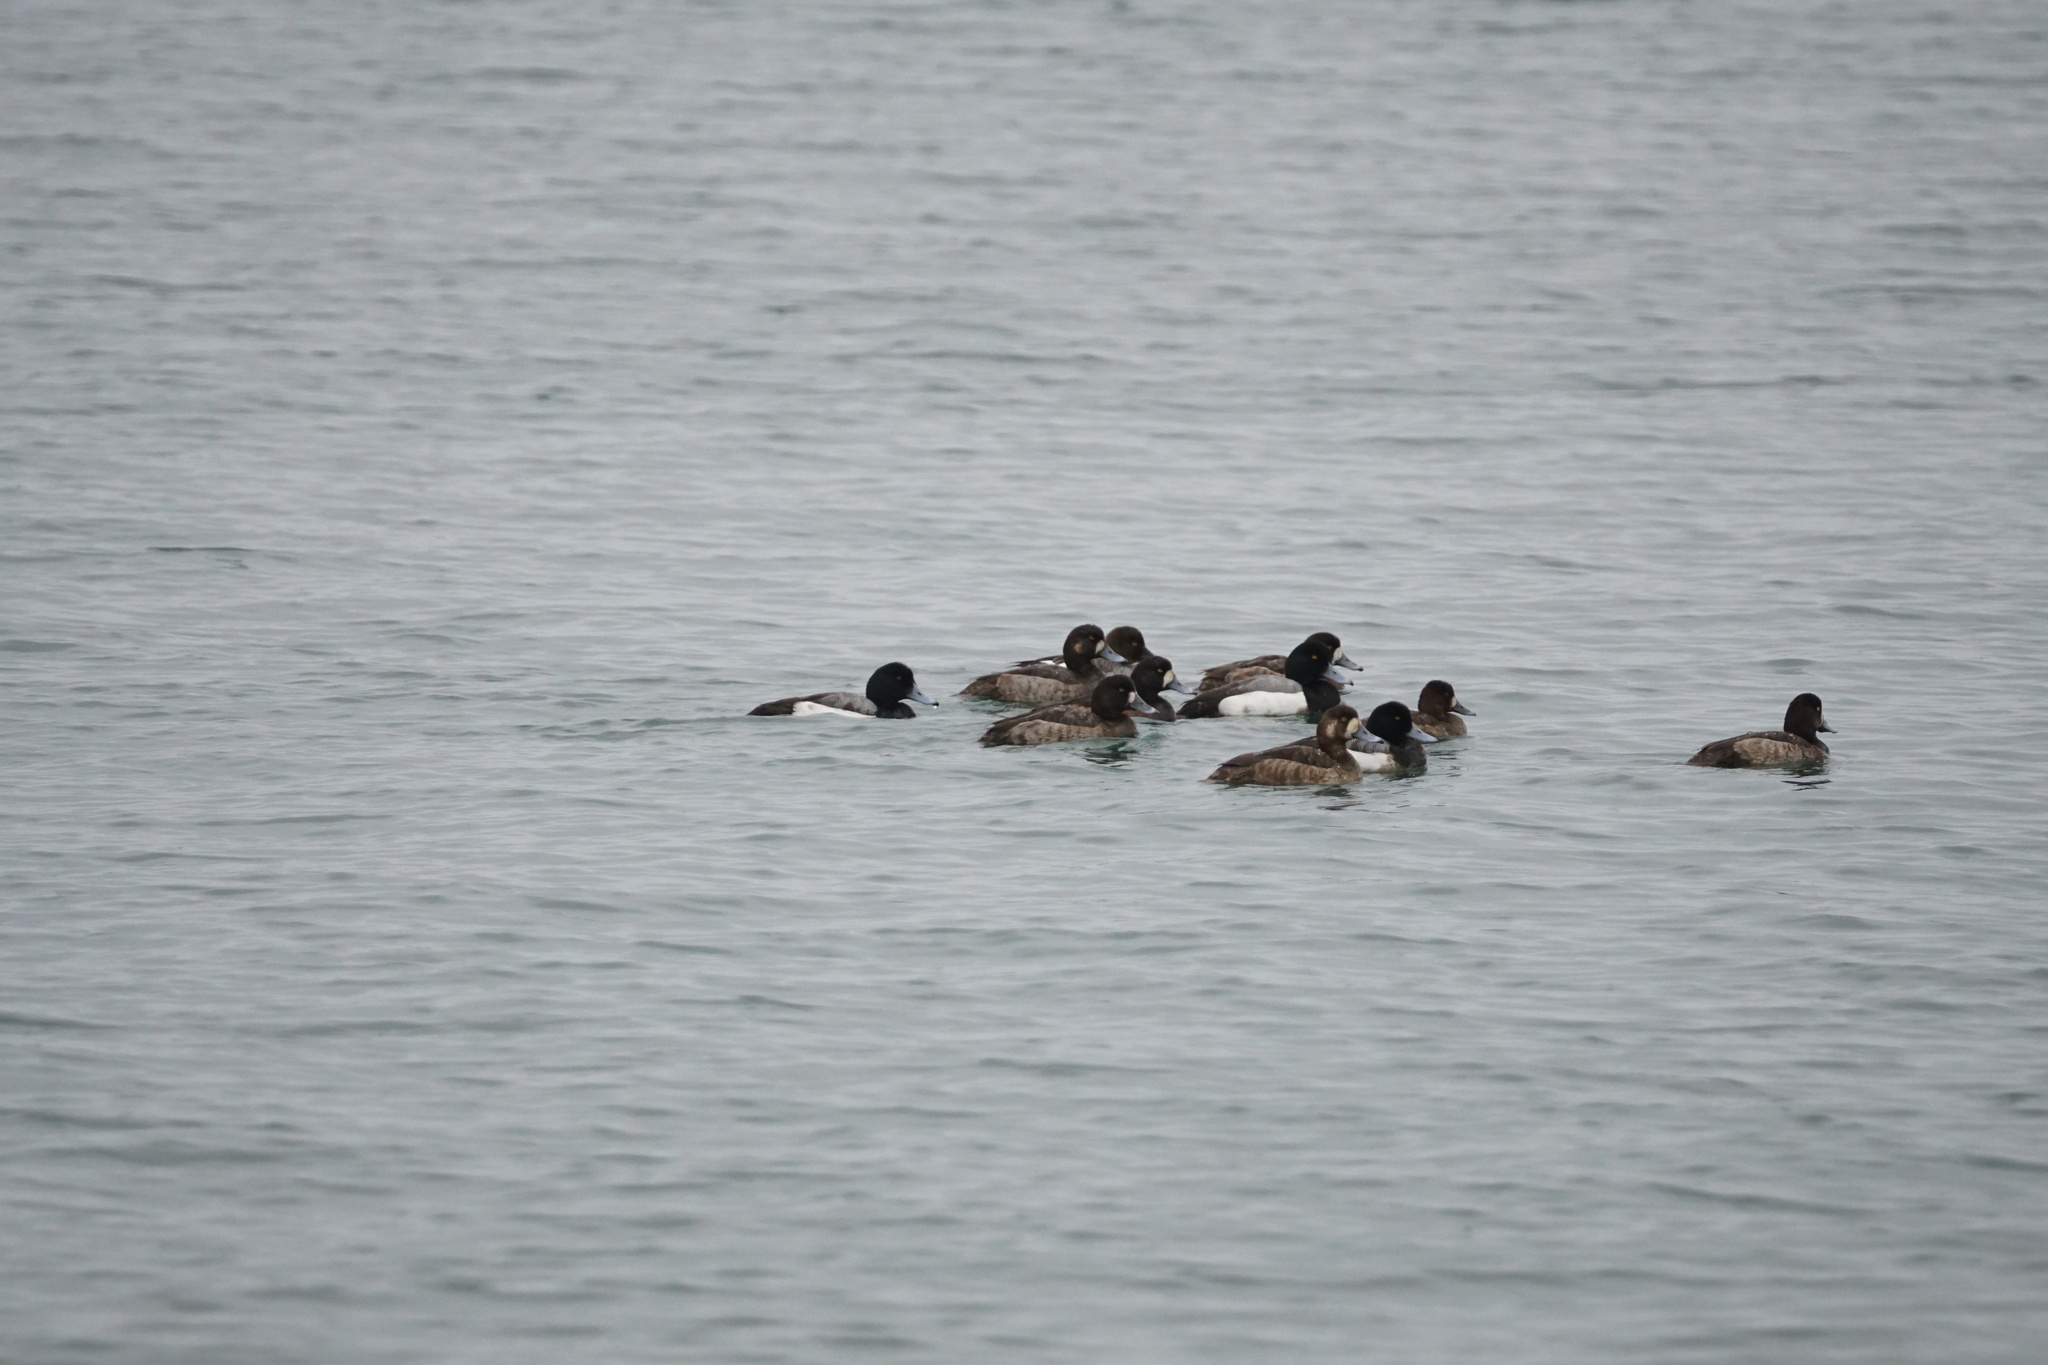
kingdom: Animalia
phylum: Chordata
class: Aves
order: Anseriformes
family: Anatidae
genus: Aythya
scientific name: Aythya marila
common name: Greater scaup
